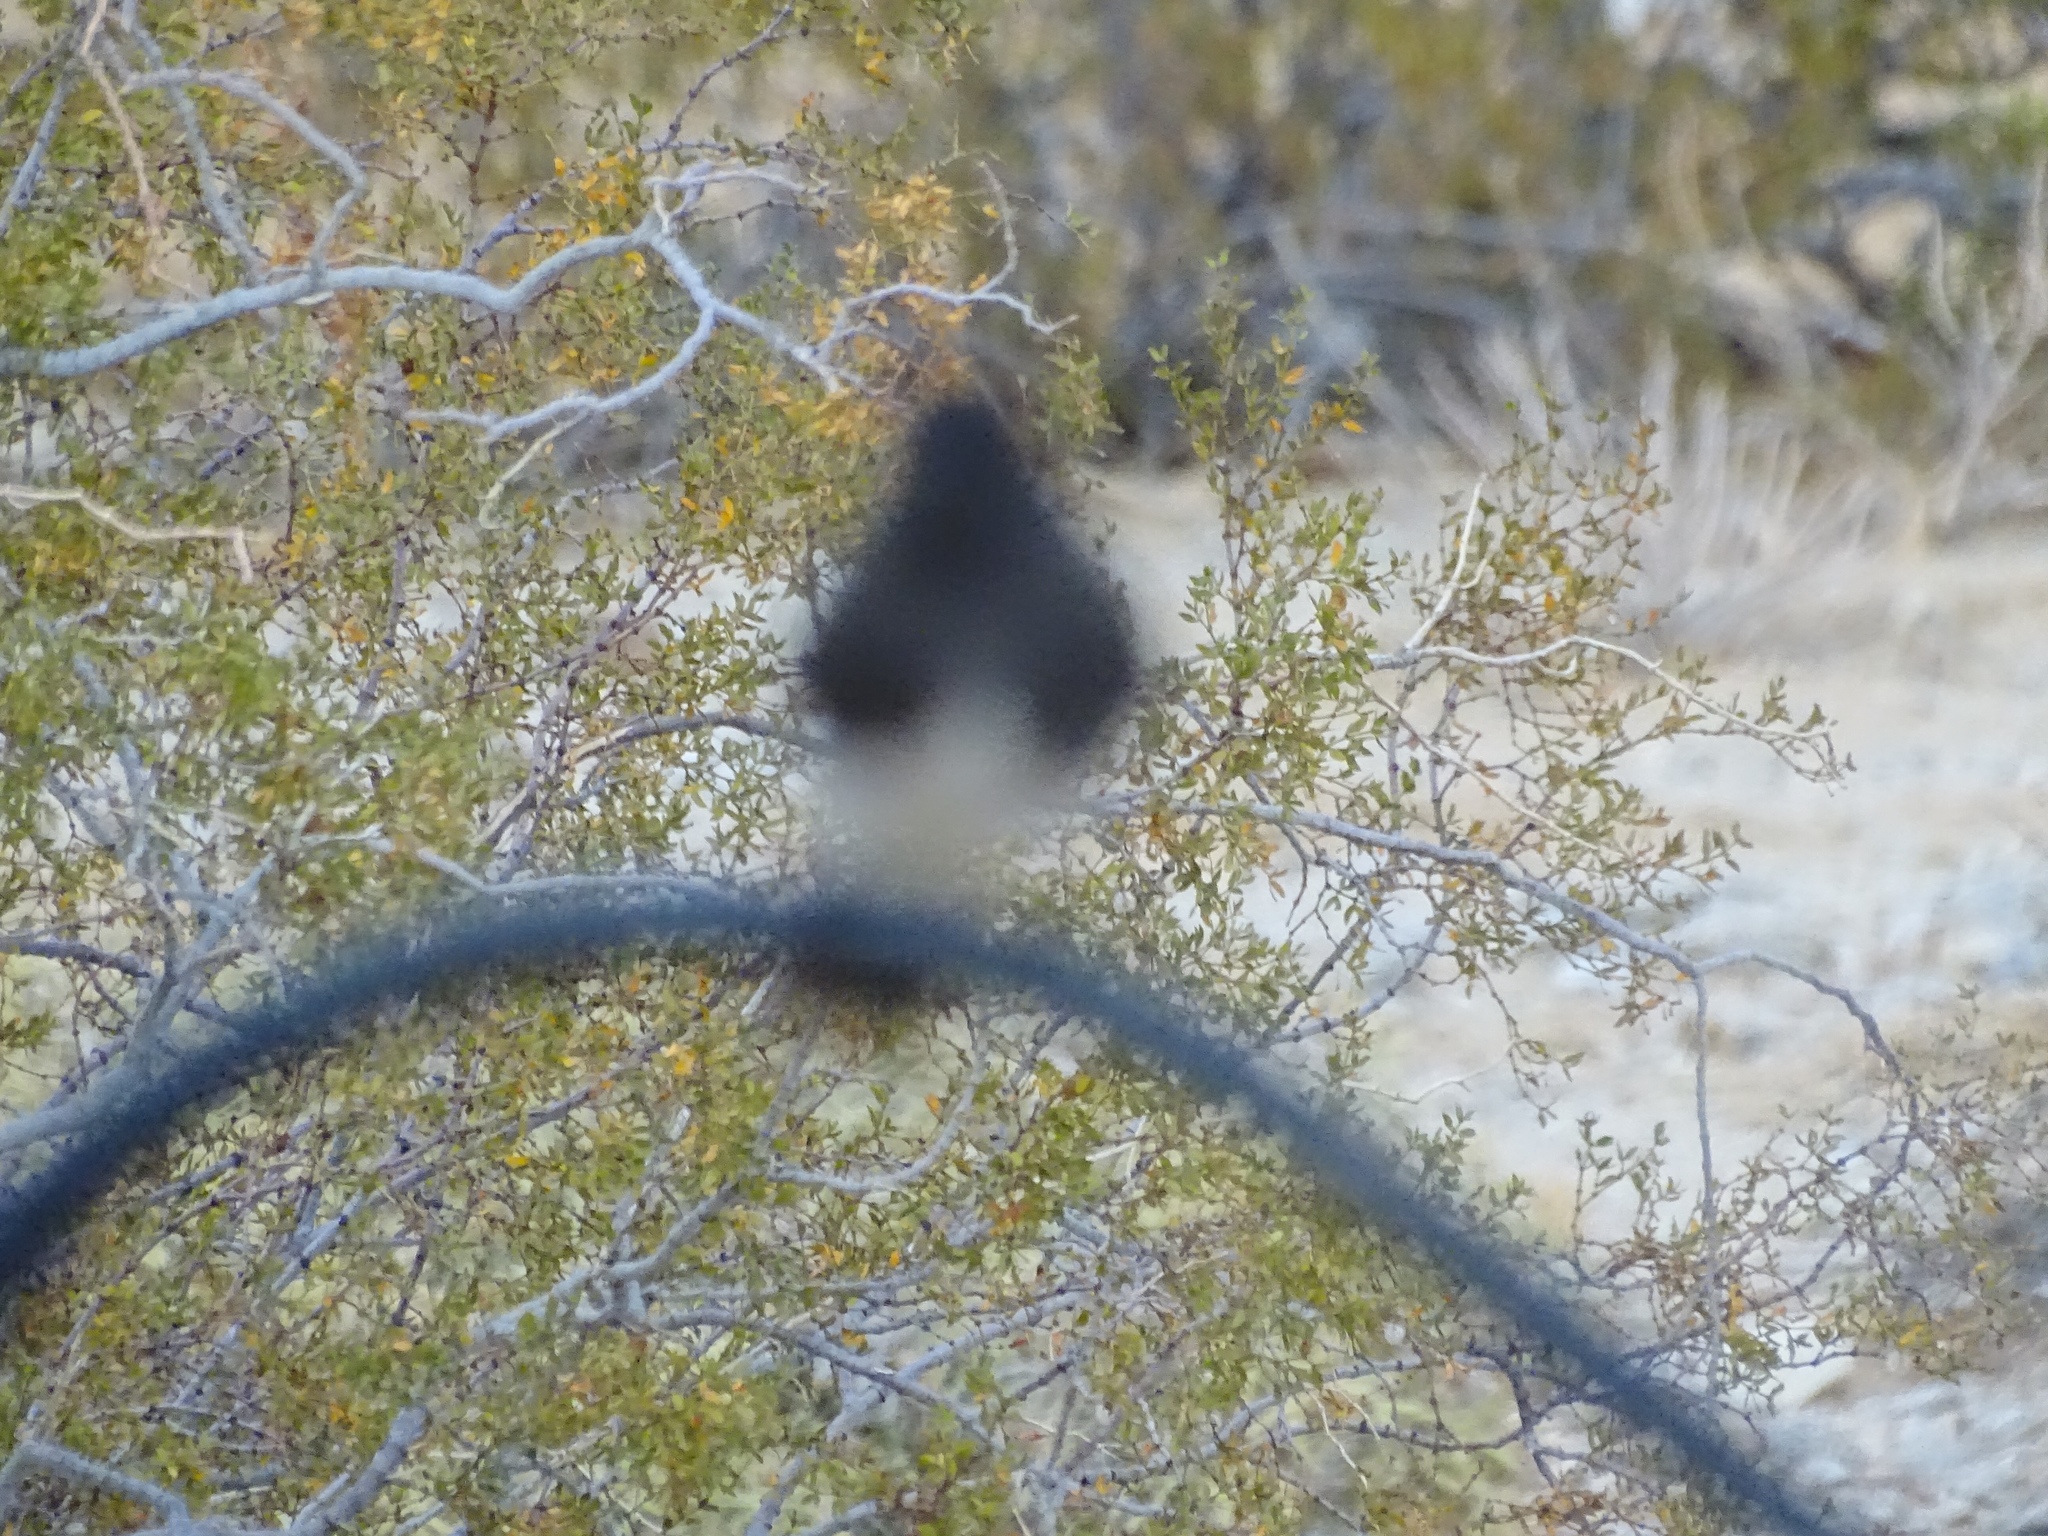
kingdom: Animalia
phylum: Chordata
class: Aves
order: Passeriformes
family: Tyrannidae
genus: Sayornis
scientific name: Sayornis nigricans
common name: Black phoebe
